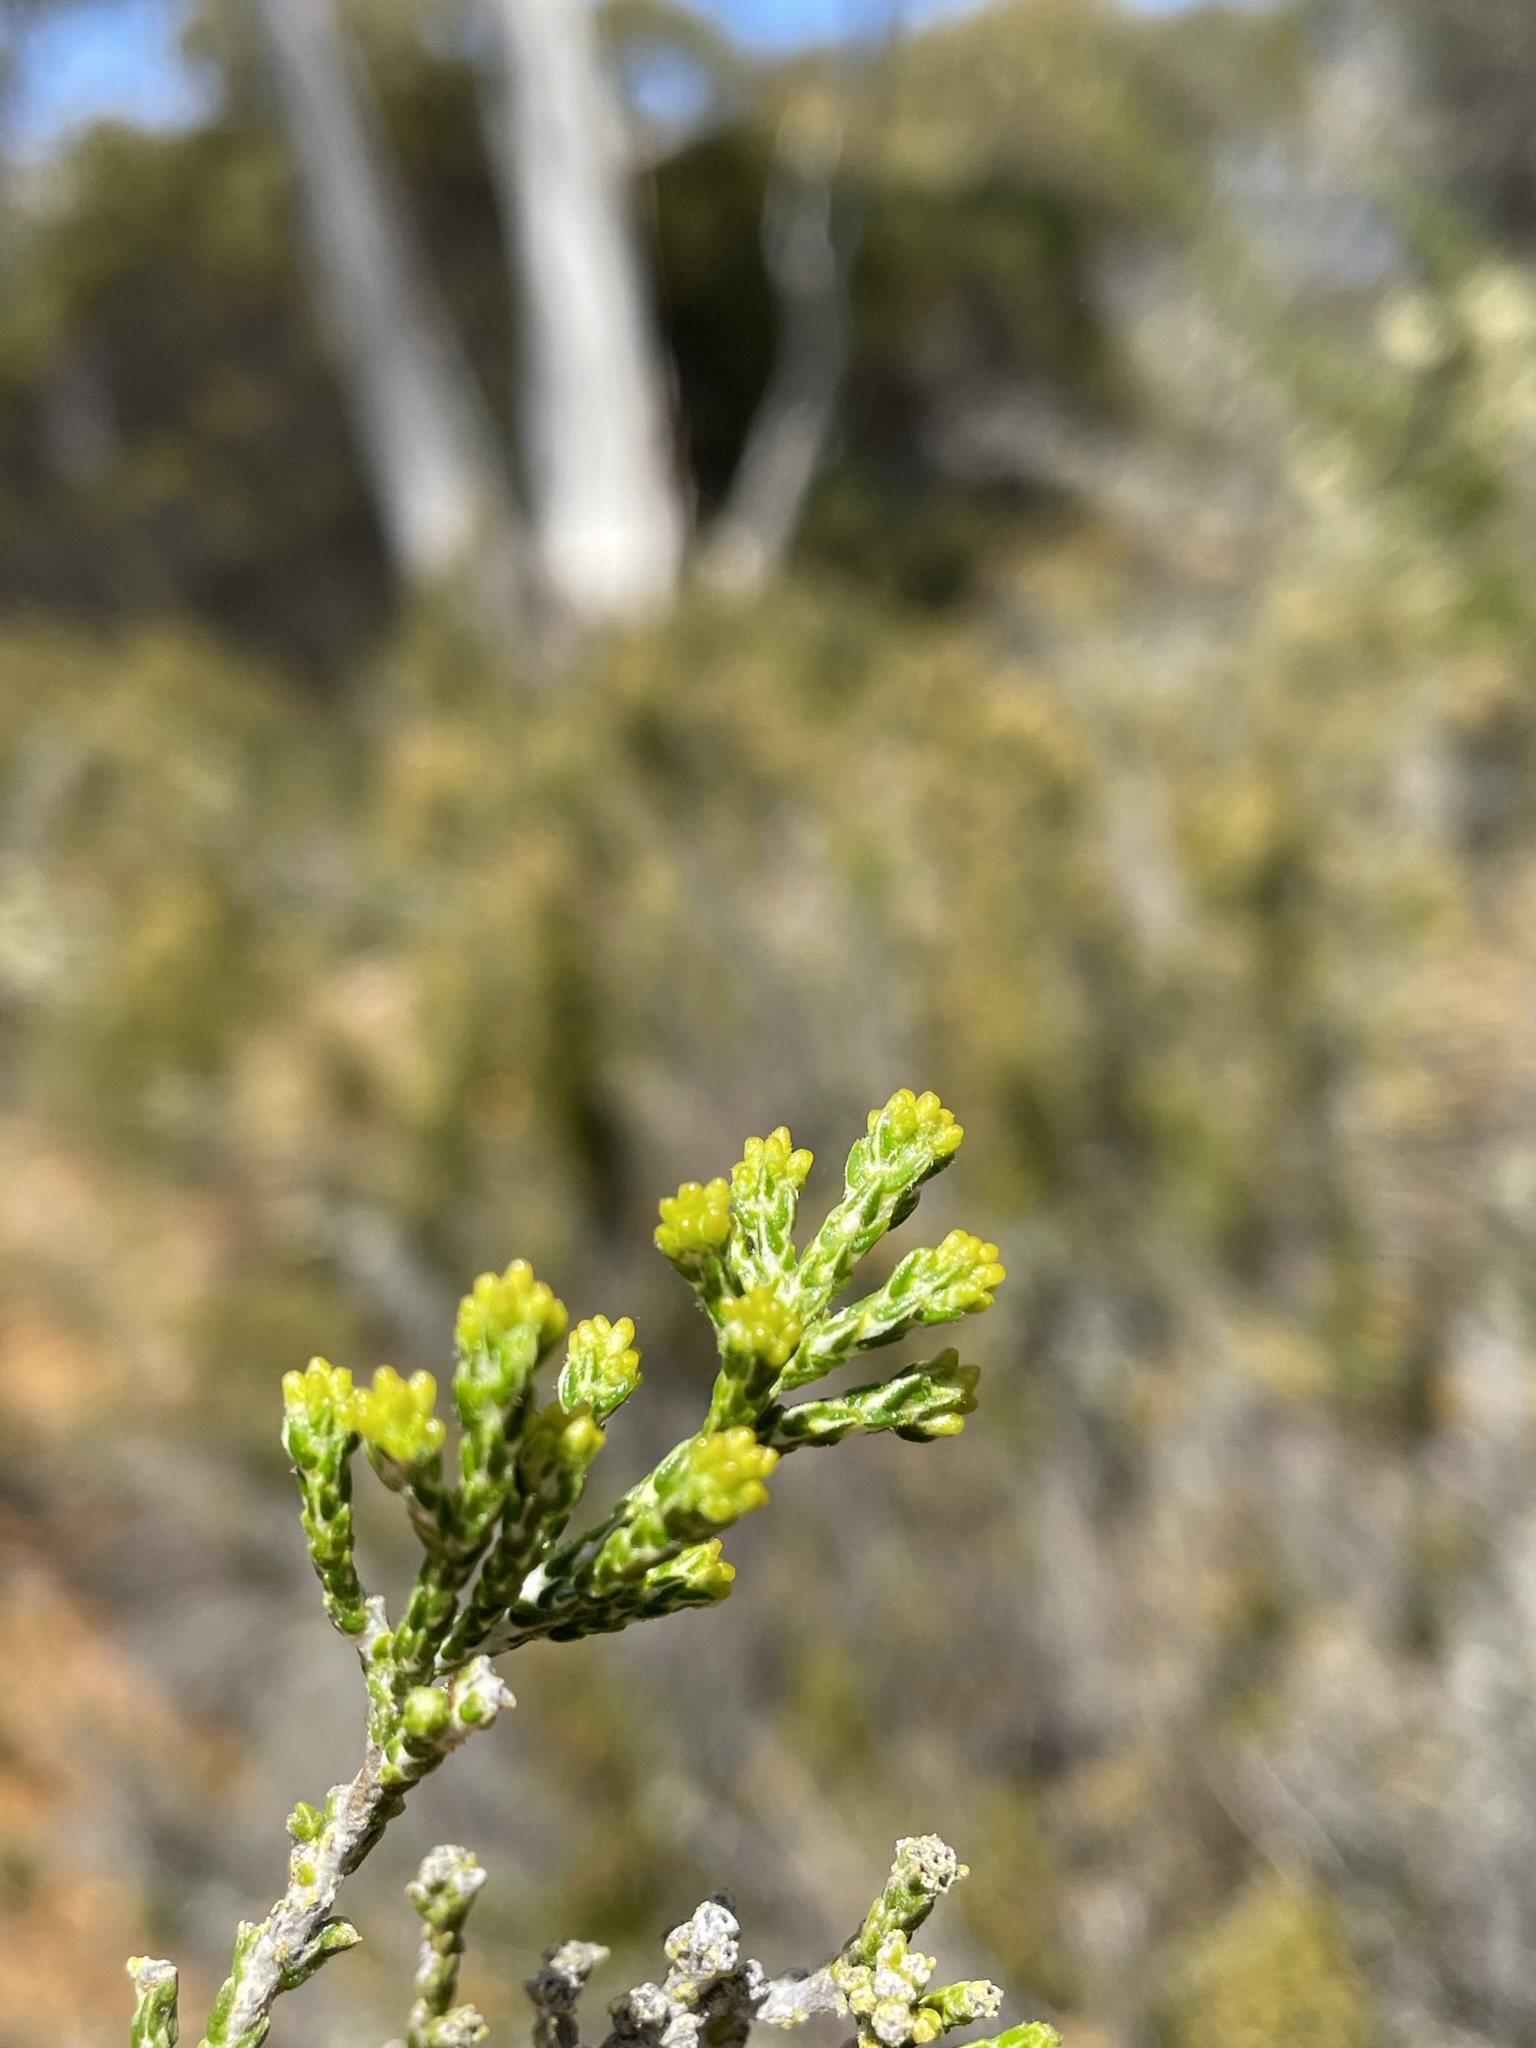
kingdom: Plantae
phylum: Tracheophyta
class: Magnoliopsida
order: Asterales
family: Asteraceae
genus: Ozothamnus
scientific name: Ozothamnus hookeri
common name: Kerosene-bush
